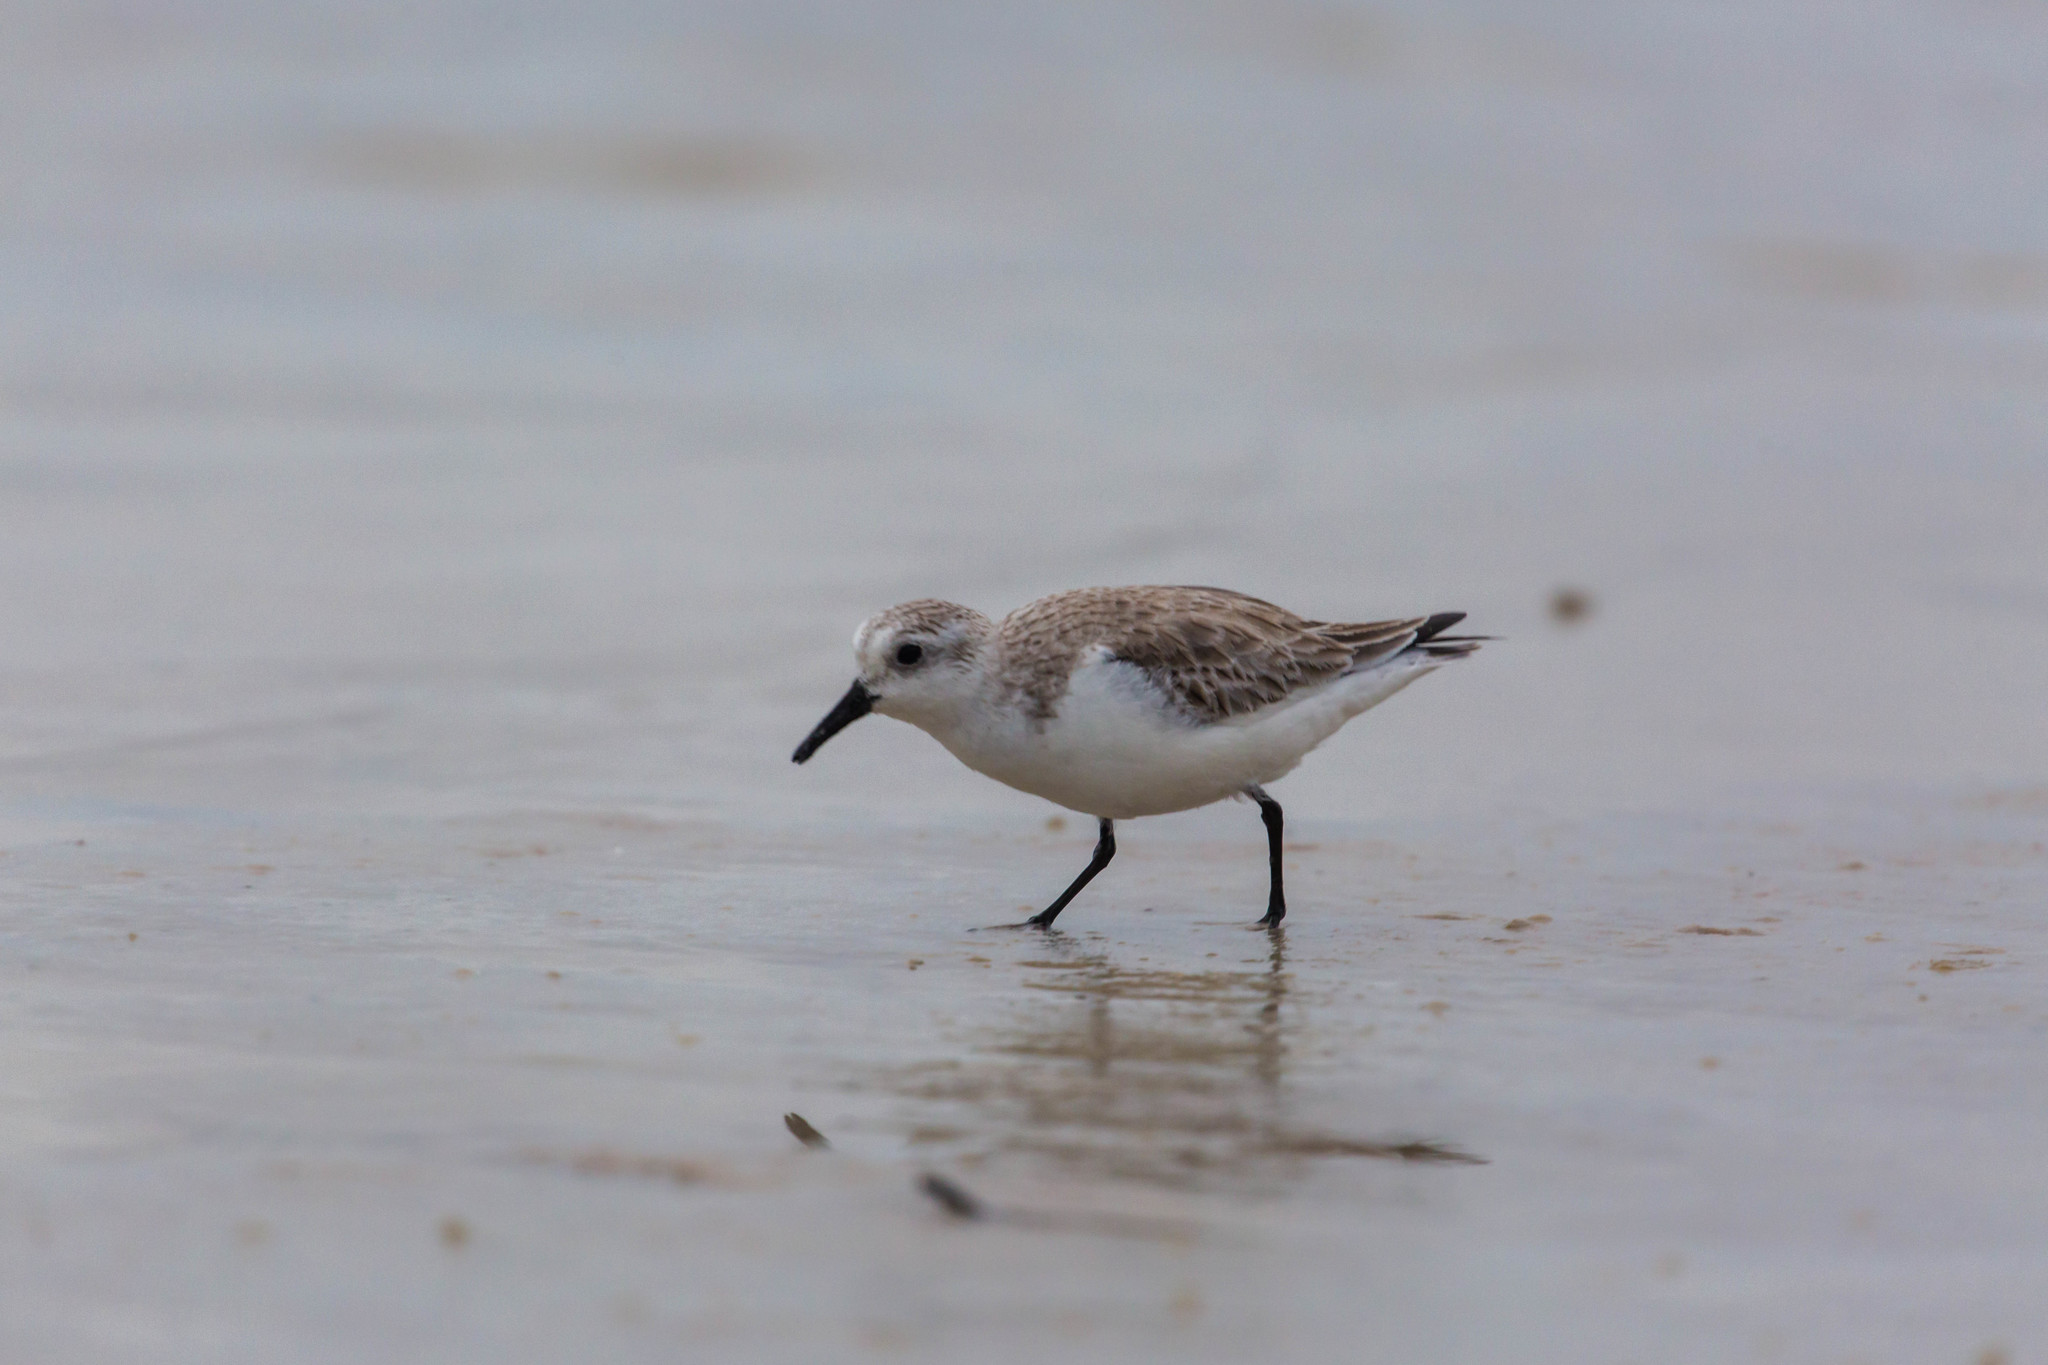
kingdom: Animalia
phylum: Chordata
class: Aves
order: Charadriiformes
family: Scolopacidae
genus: Calidris
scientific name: Calidris alba
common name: Sanderling
